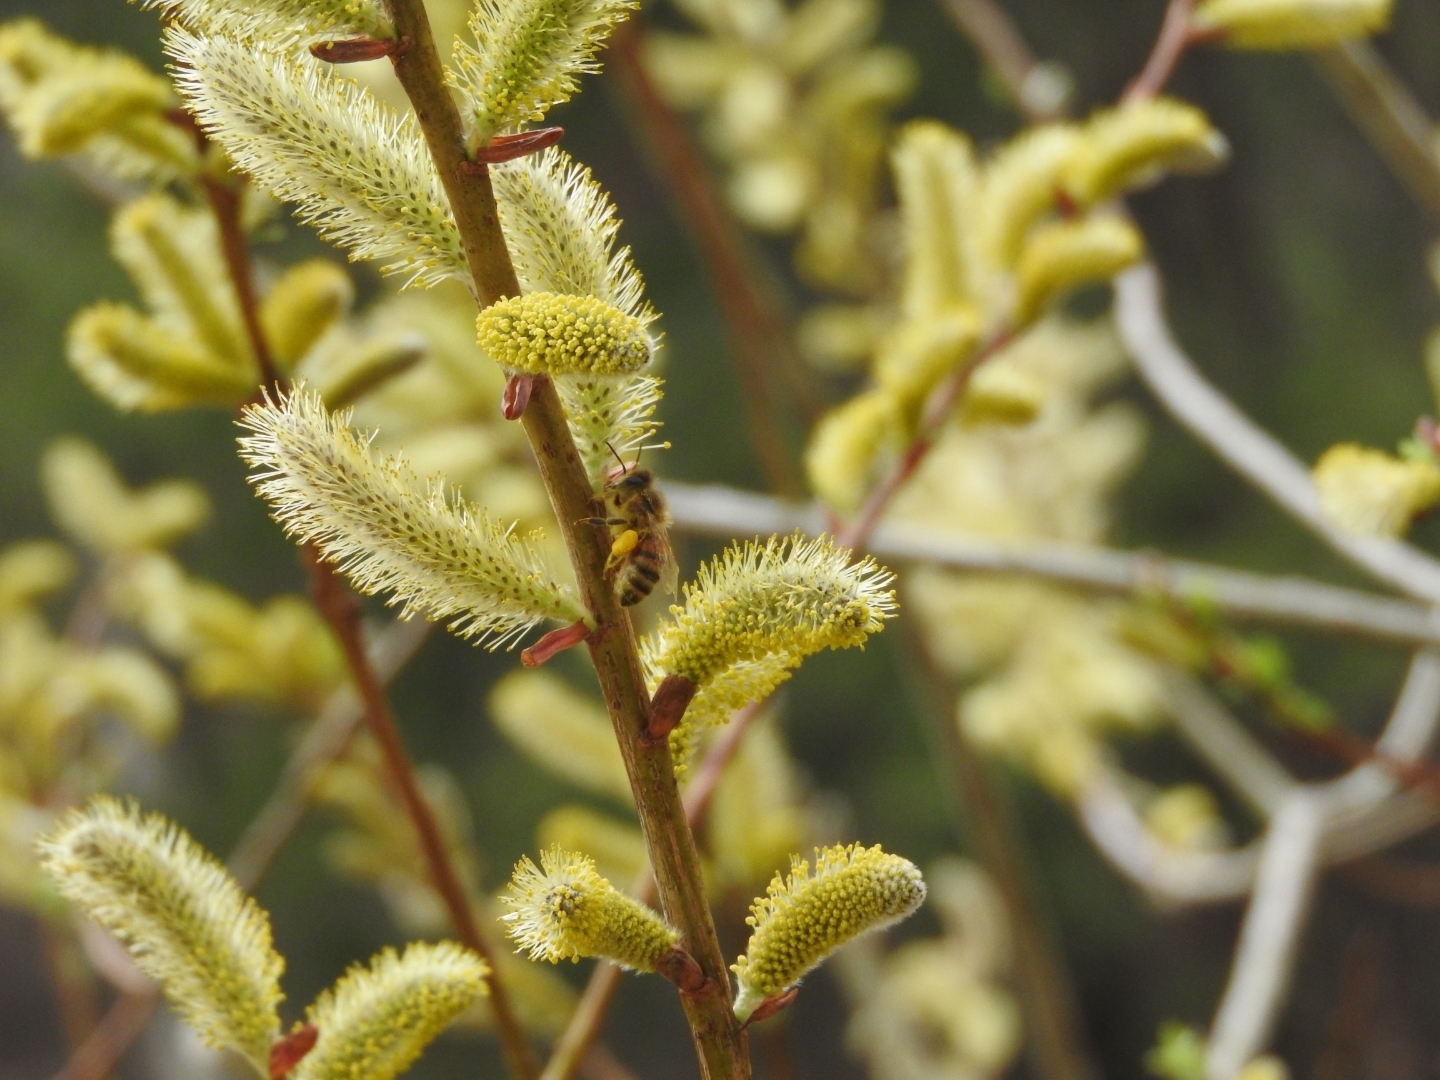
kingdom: Animalia
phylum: Arthropoda
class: Insecta
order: Hymenoptera
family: Apidae
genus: Apis
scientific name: Apis mellifera
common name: Honey bee
